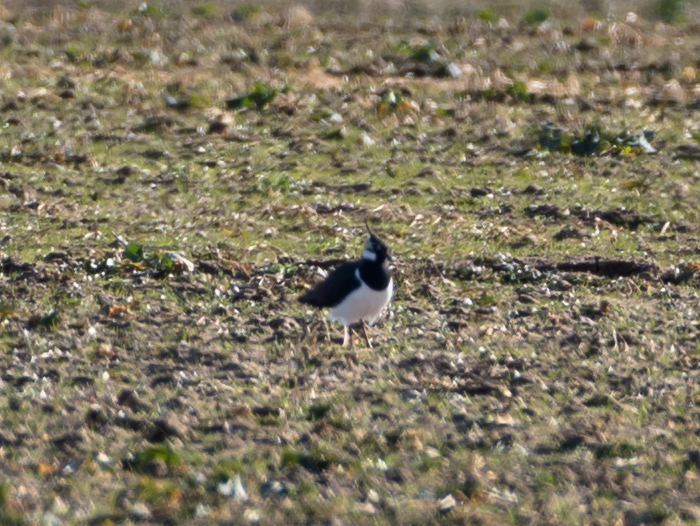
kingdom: Animalia
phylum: Chordata
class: Aves
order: Charadriiformes
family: Charadriidae
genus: Vanellus
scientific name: Vanellus vanellus
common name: Northern lapwing
